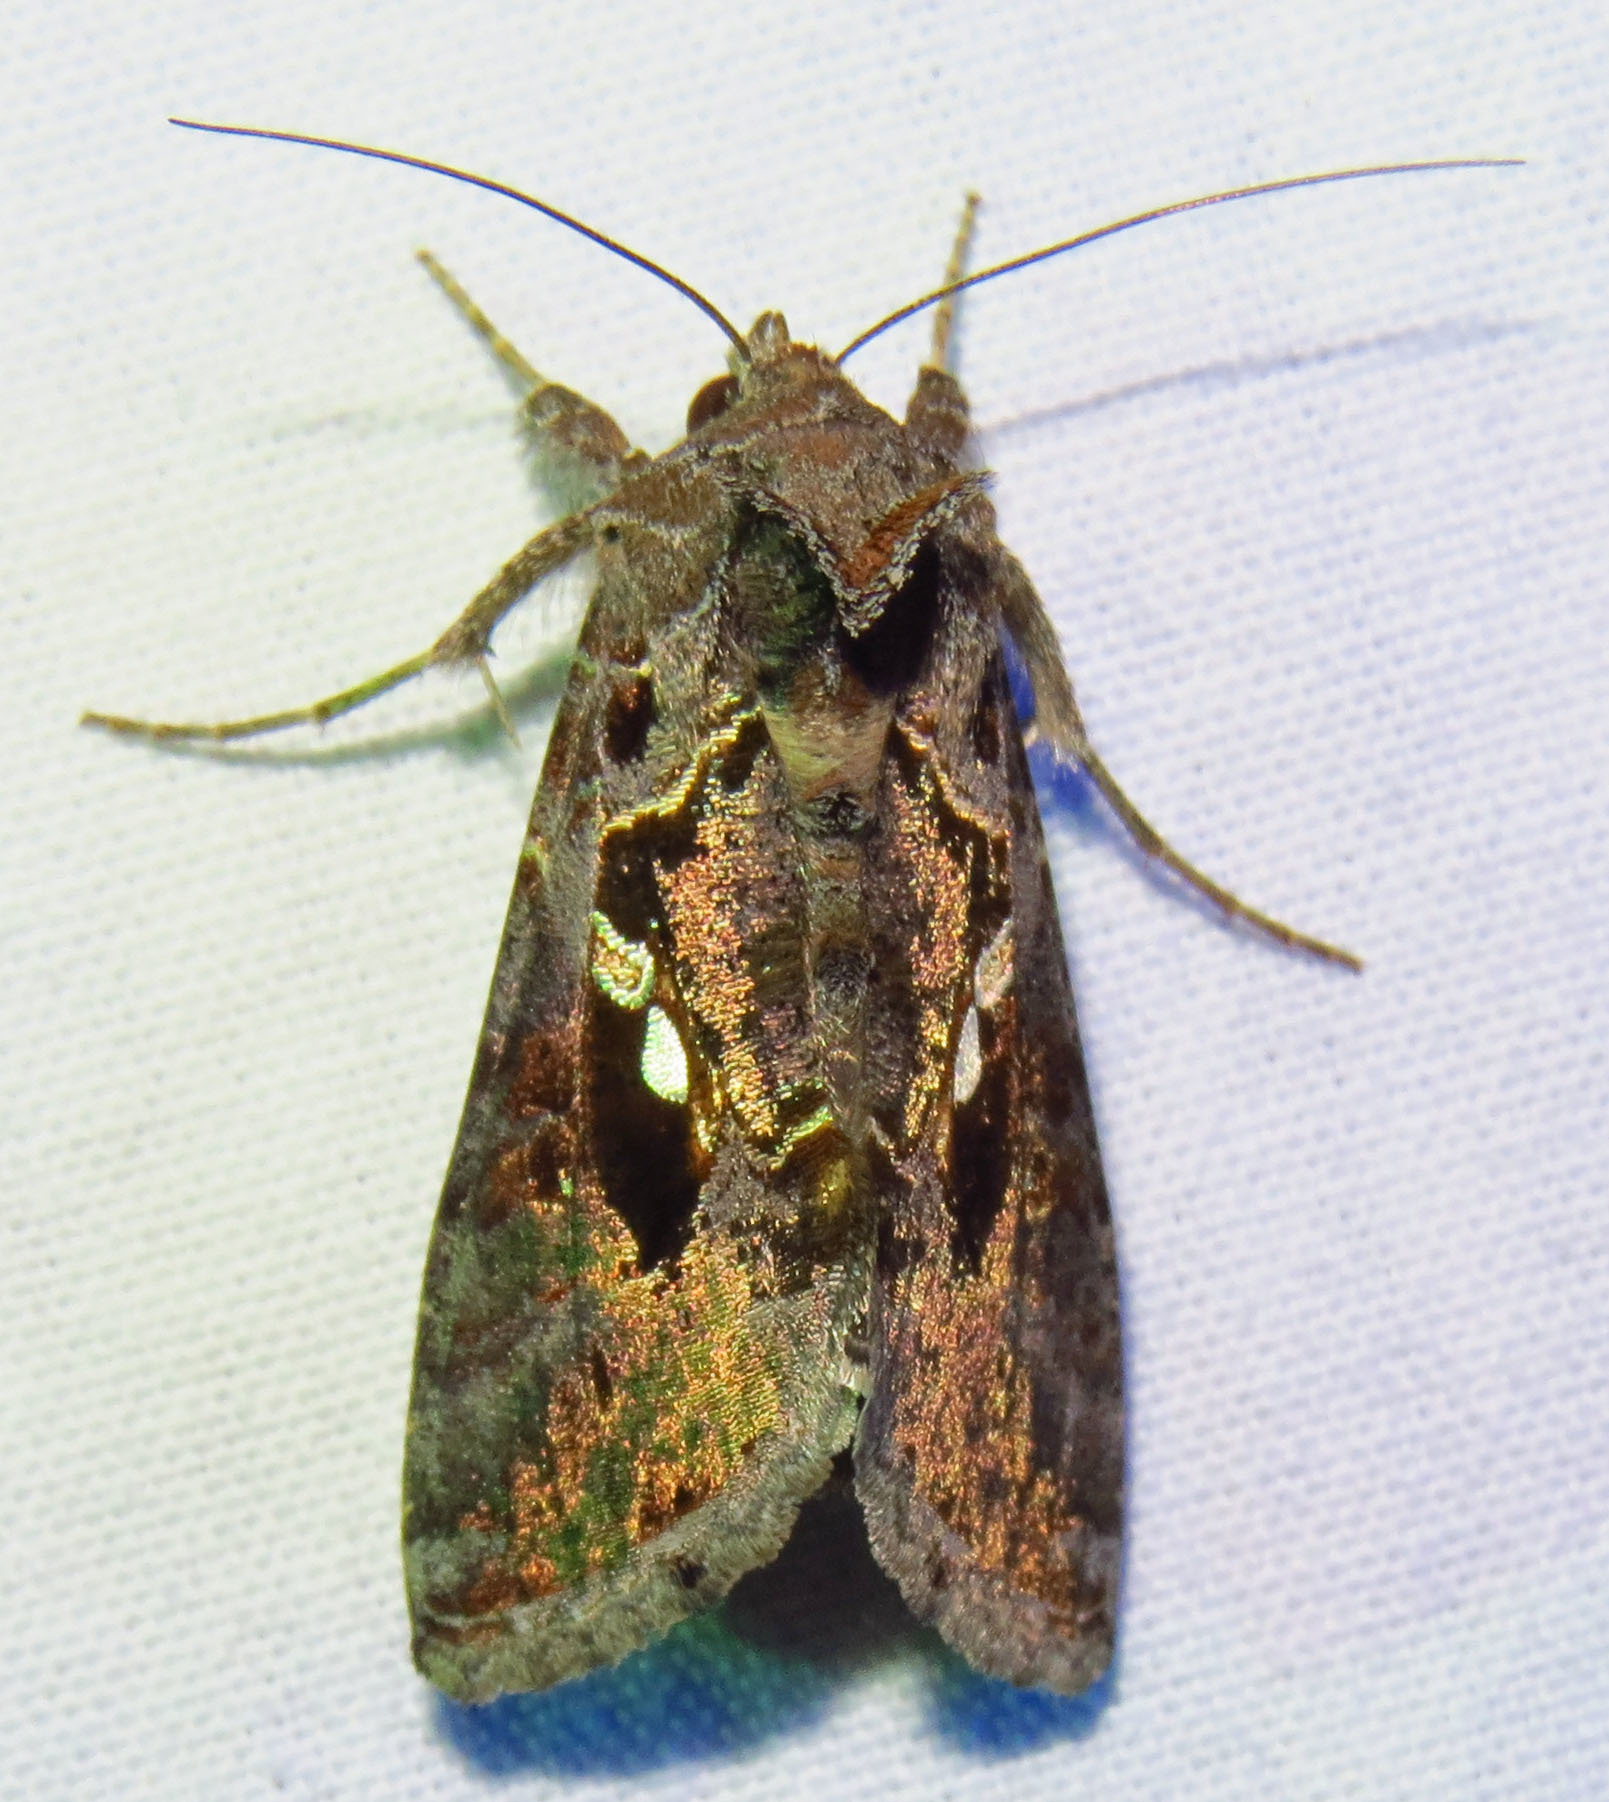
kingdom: Animalia
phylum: Arthropoda
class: Insecta
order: Lepidoptera
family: Noctuidae
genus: Chrysodeixis
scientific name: Chrysodeixis includens
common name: Cutworm moth
